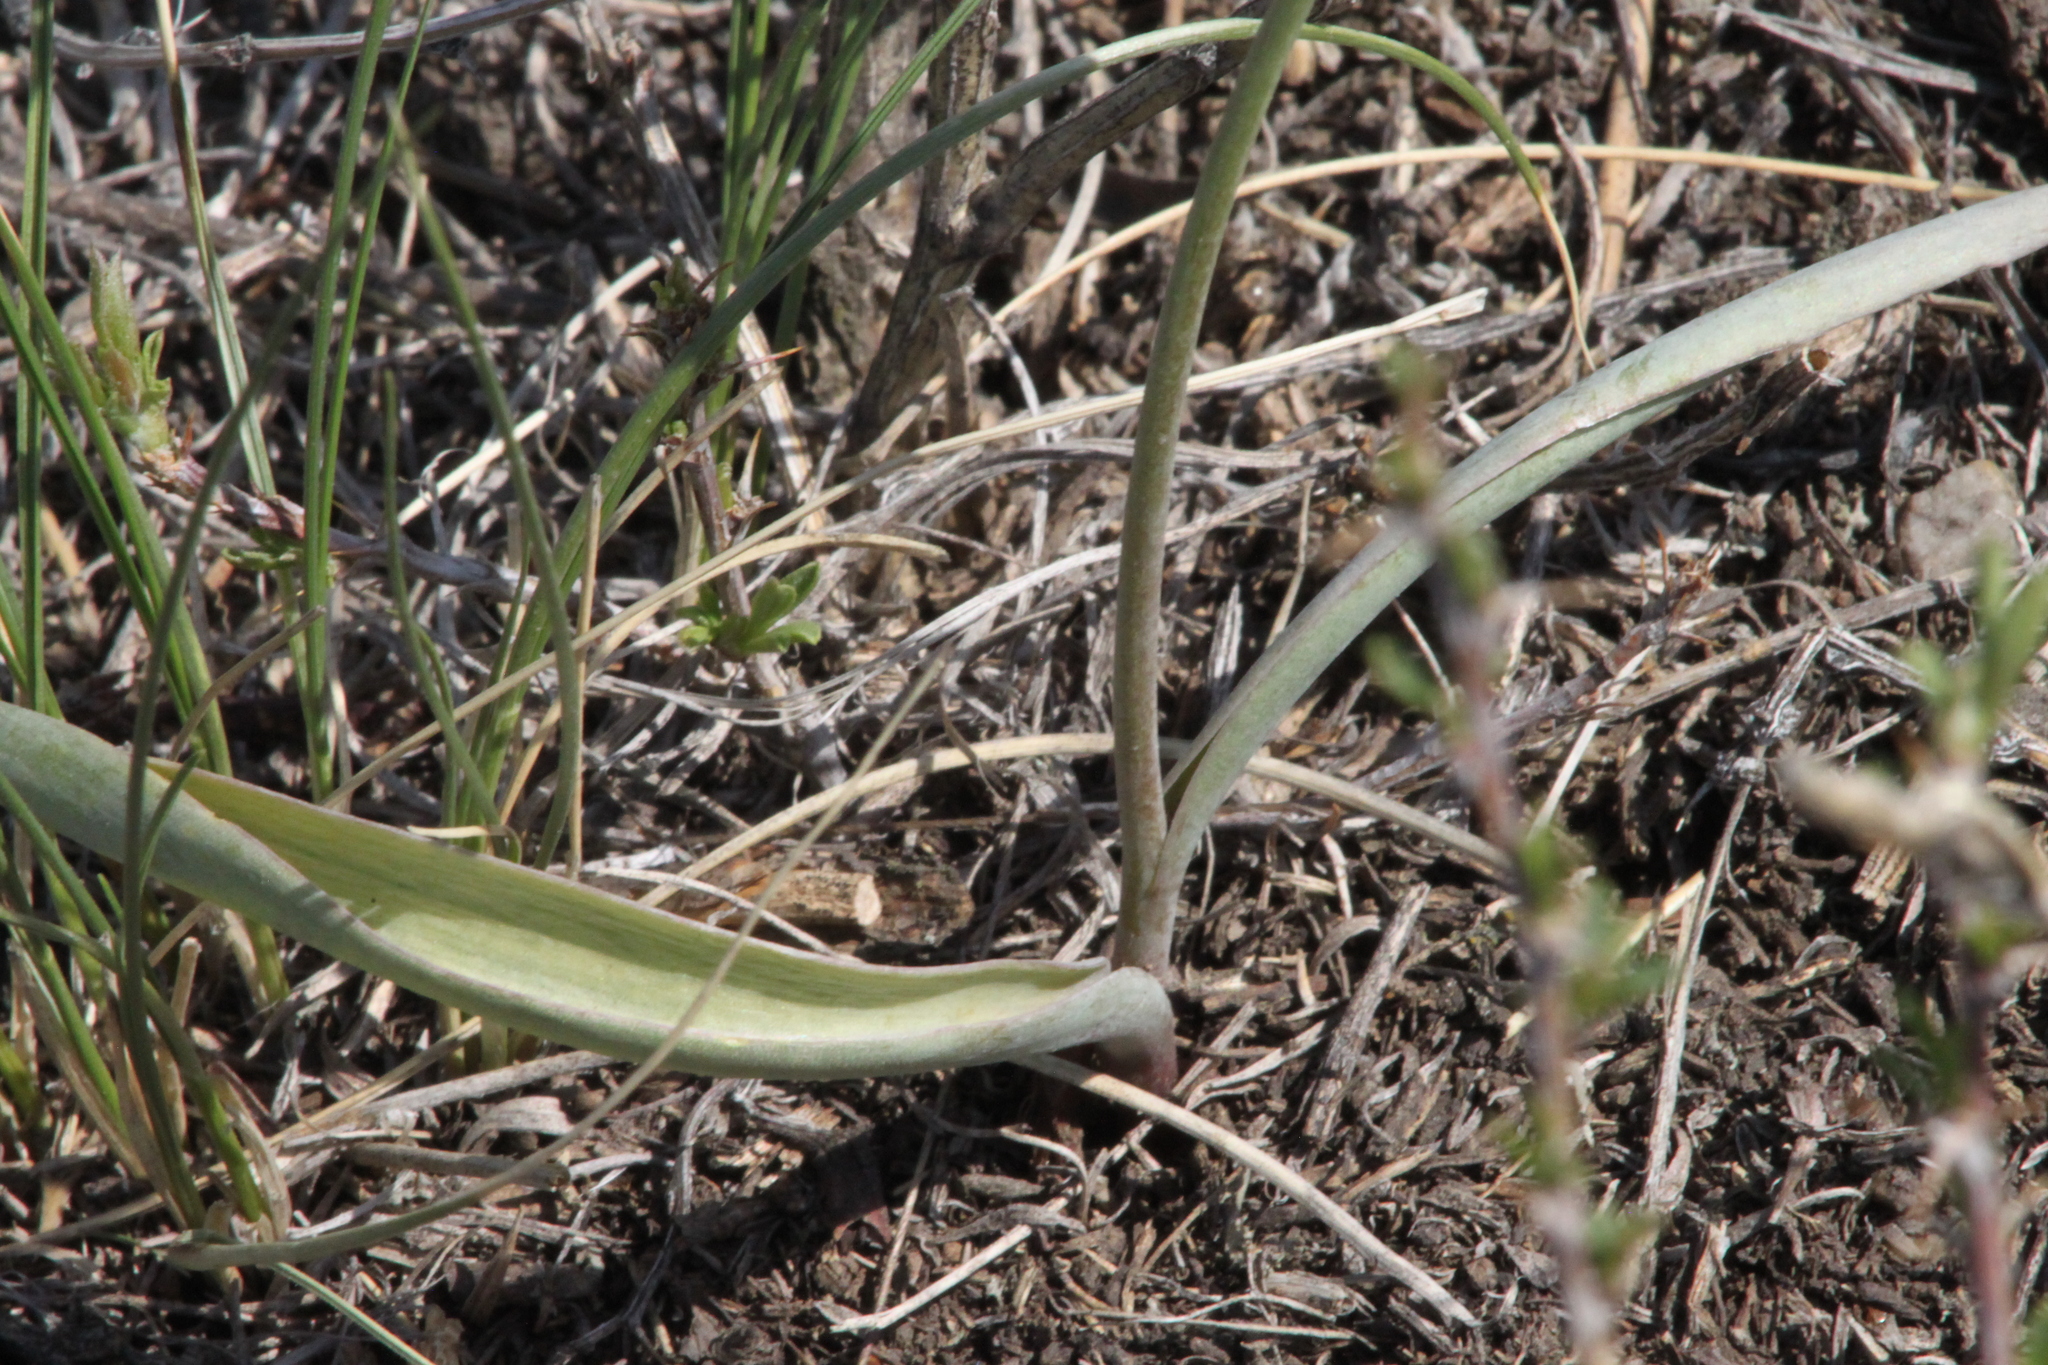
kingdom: Plantae
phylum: Tracheophyta
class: Liliopsida
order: Liliales
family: Liliaceae
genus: Tulipa
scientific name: Tulipa patens
